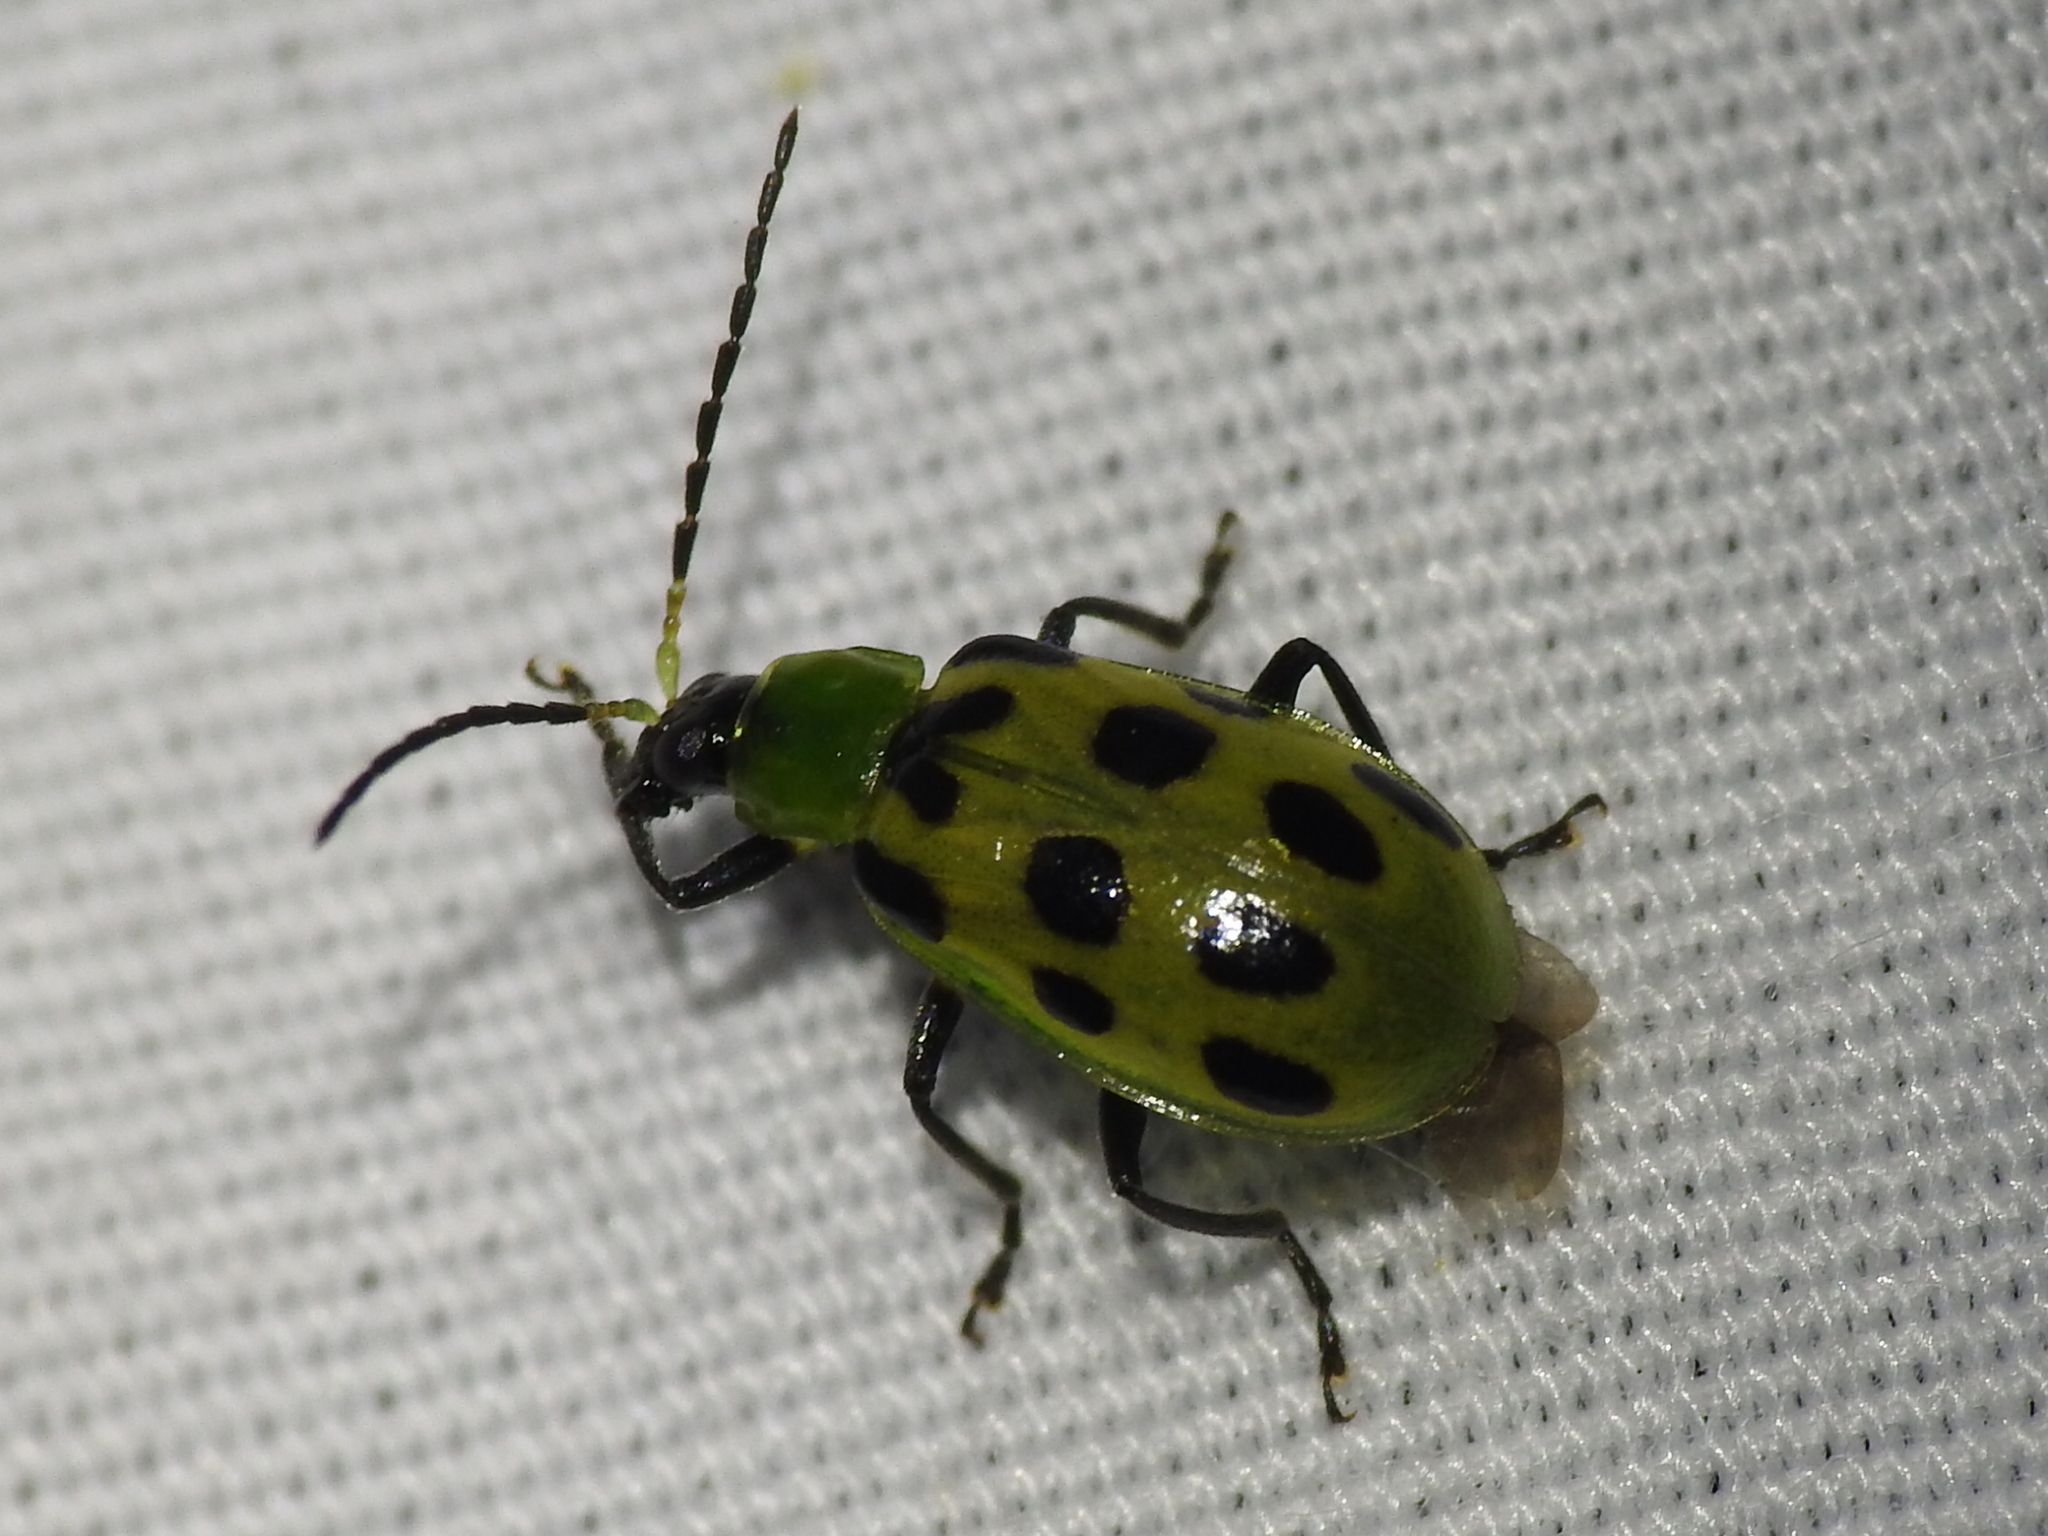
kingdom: Animalia
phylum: Arthropoda
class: Insecta
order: Coleoptera
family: Chrysomelidae
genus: Diabrotica
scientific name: Diabrotica undecimpunctata
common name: Spotted cucumber beetle
